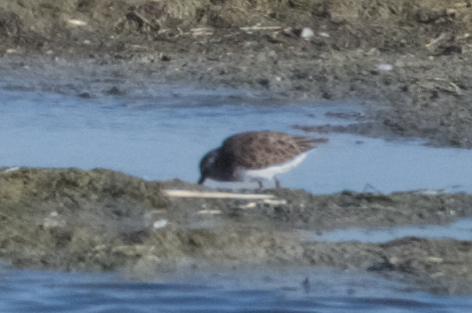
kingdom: Animalia
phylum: Chordata
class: Aves
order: Charadriiformes
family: Scolopacidae
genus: Calidris
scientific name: Calidris minutilla
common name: Least sandpiper
